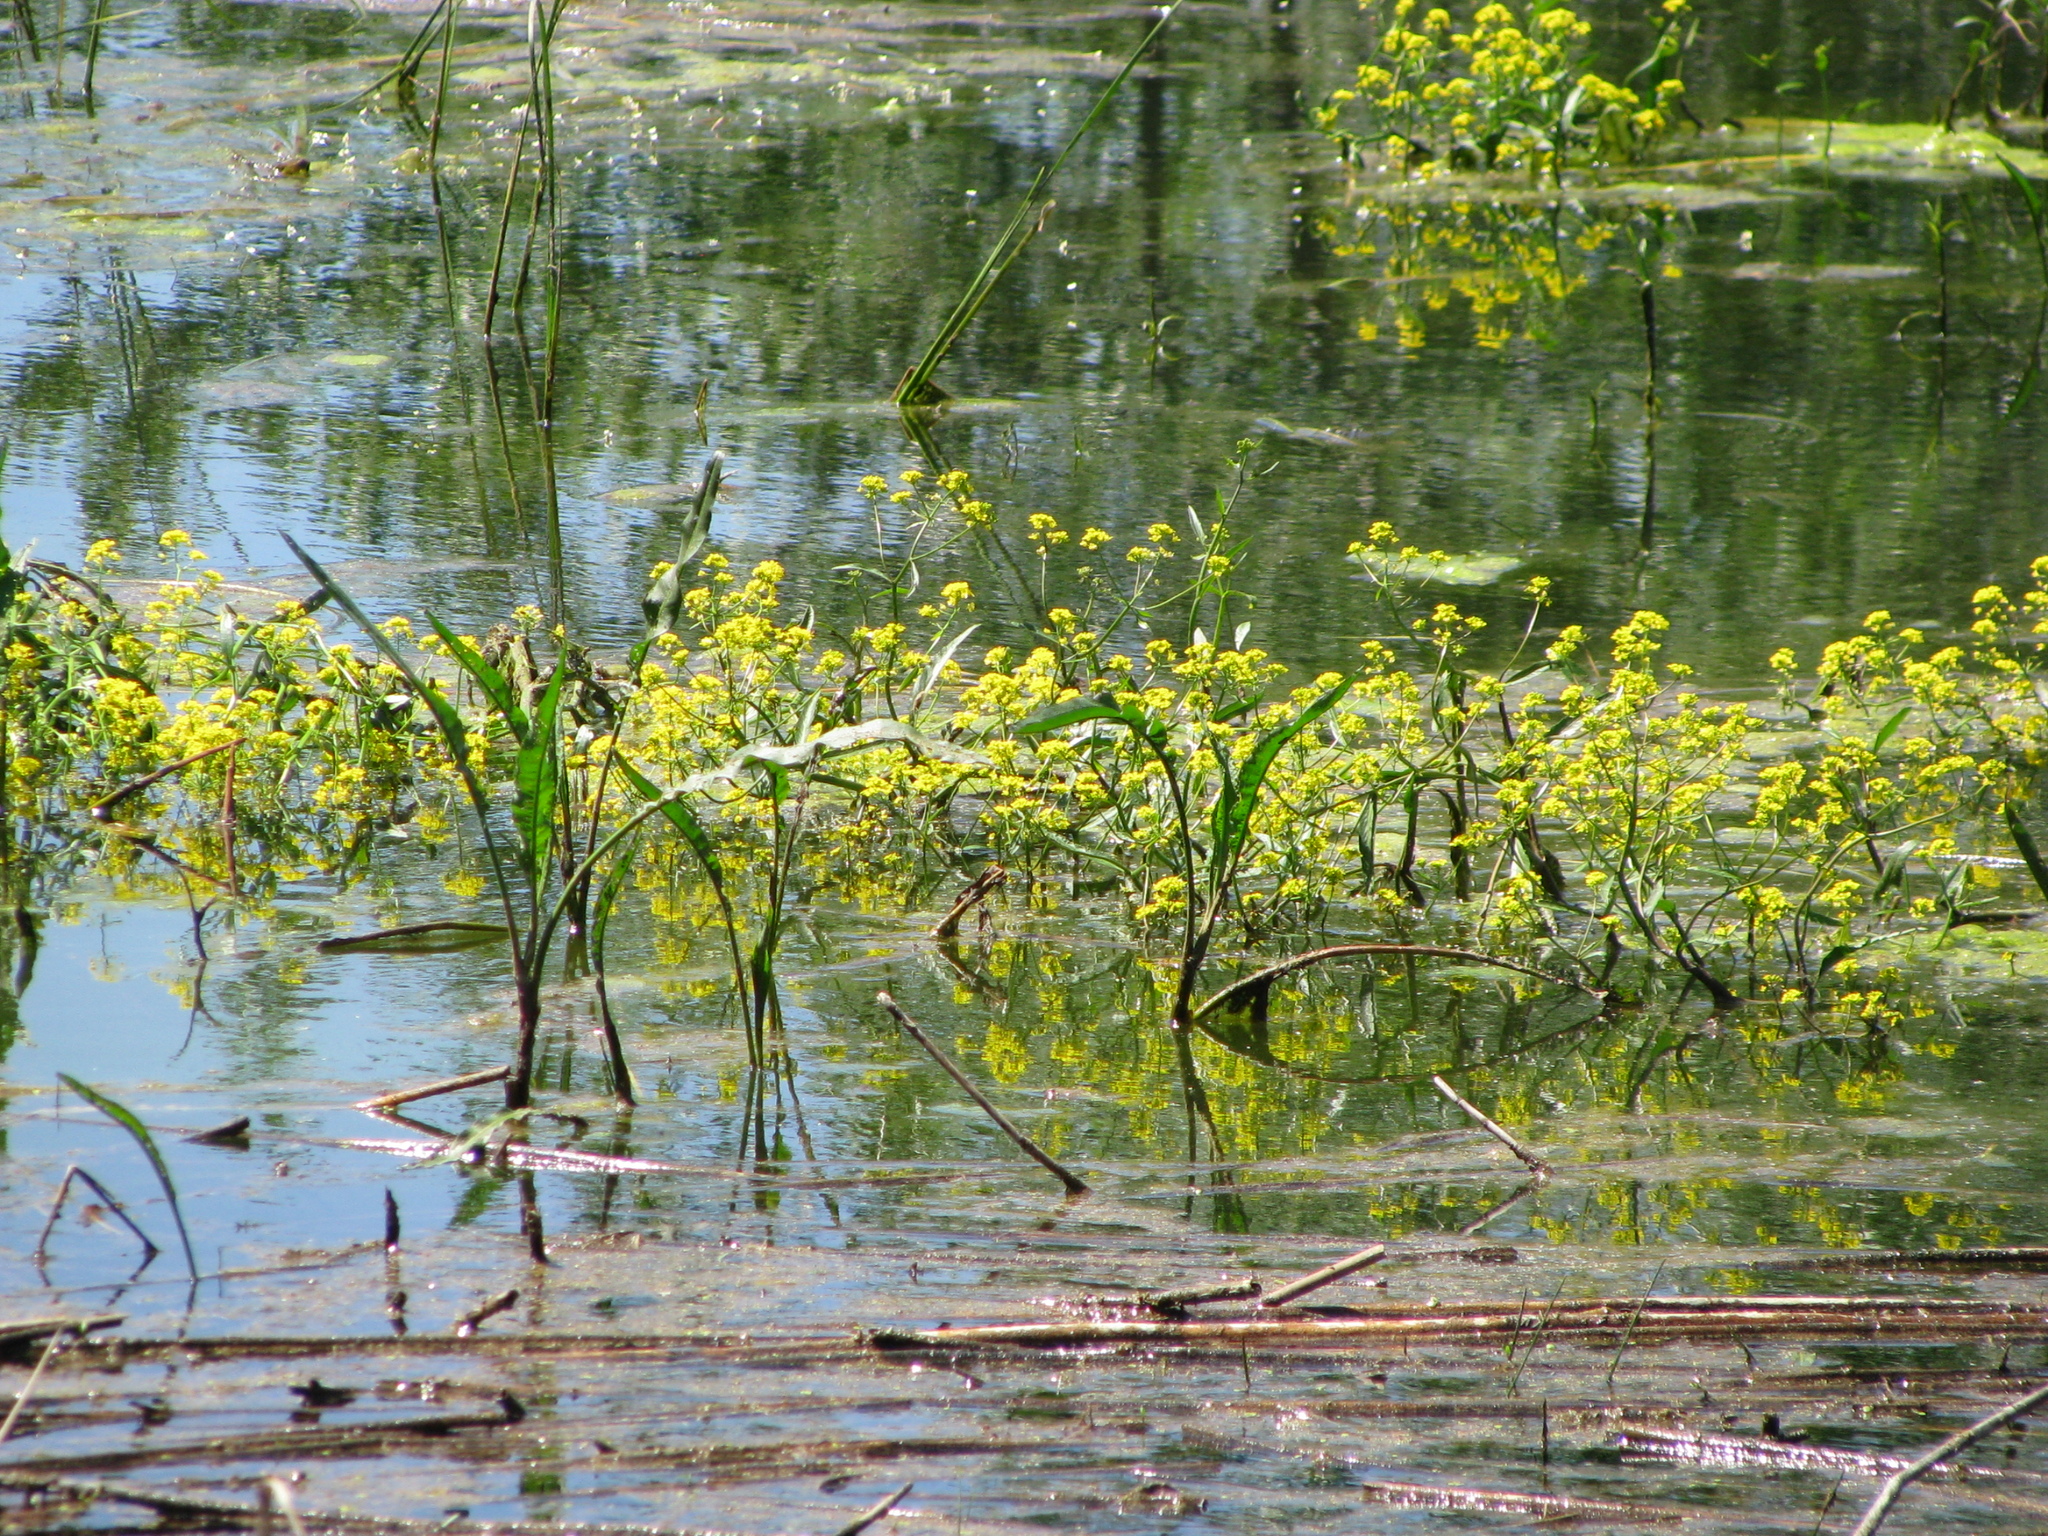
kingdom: Plantae
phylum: Tracheophyta
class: Magnoliopsida
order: Brassicales
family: Brassicaceae
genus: Rorippa
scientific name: Rorippa amphibia
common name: Great yellow-cress
